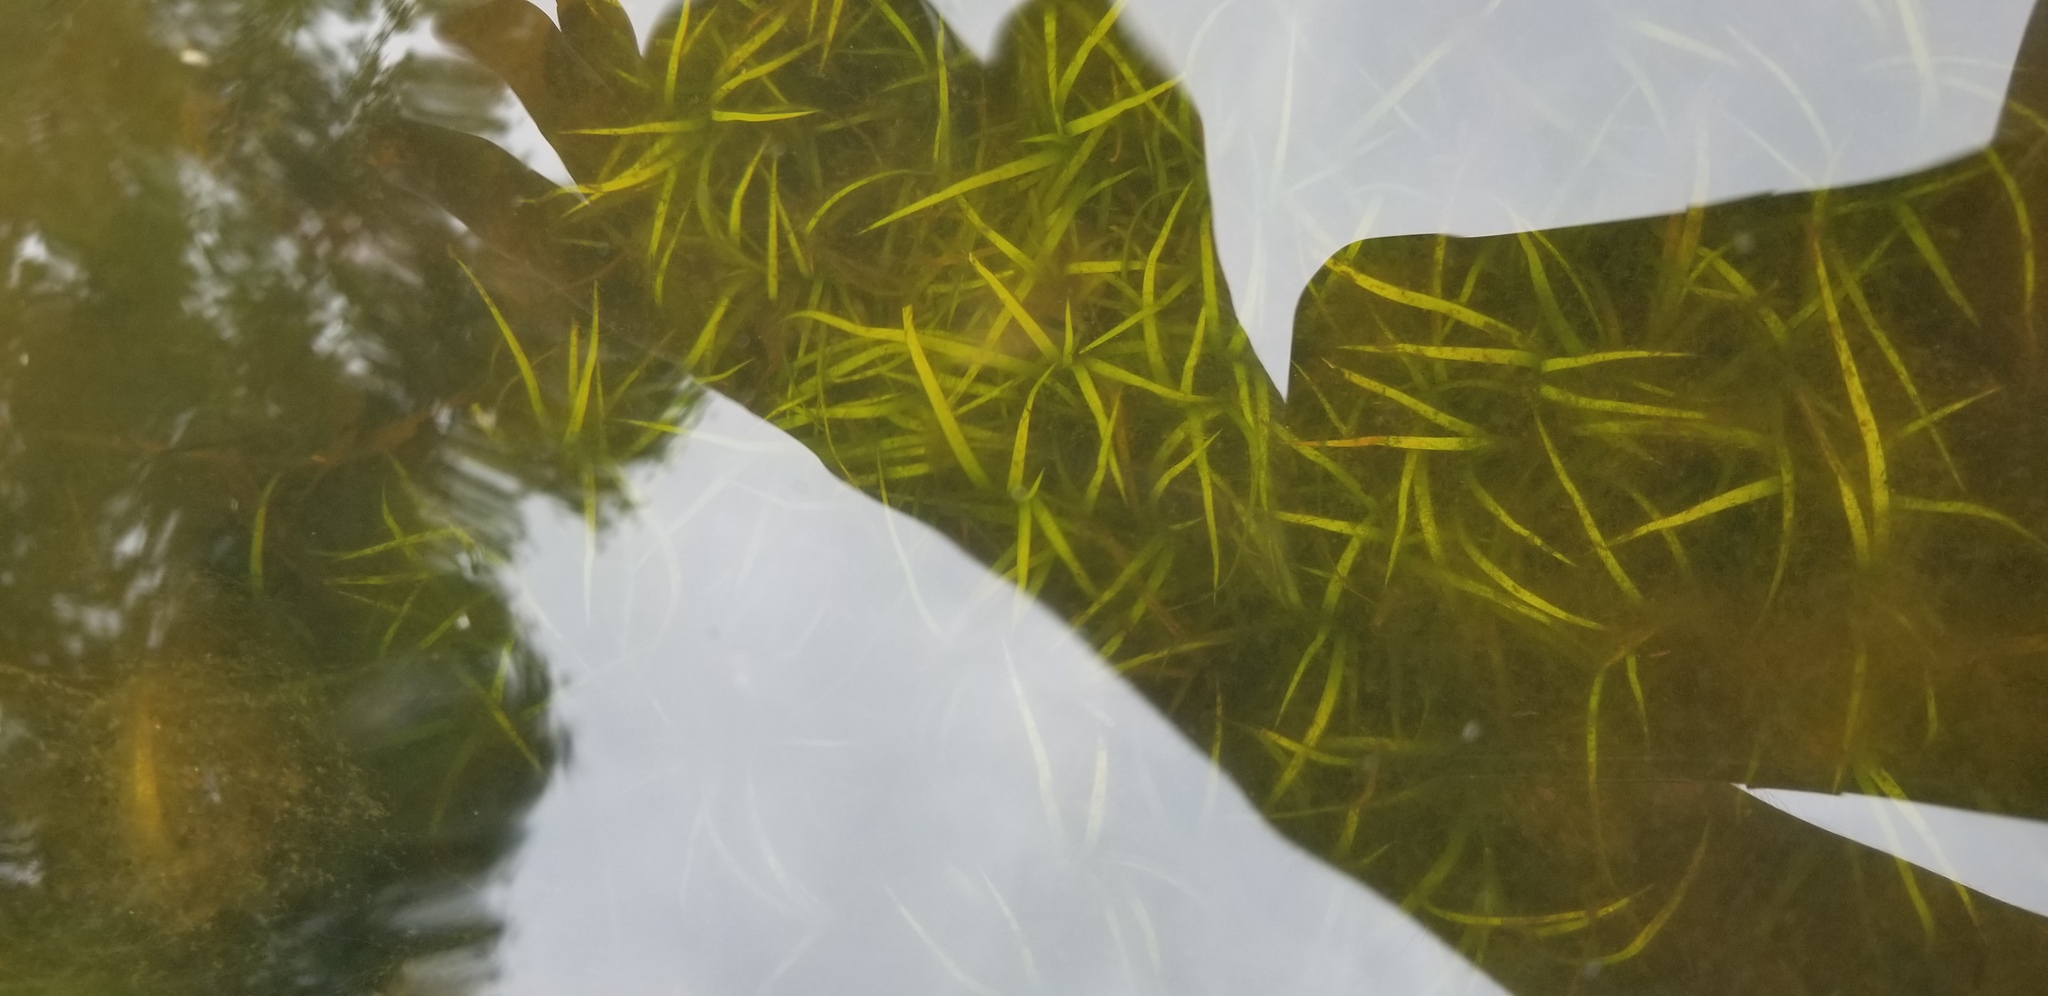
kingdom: Plantae
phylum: Tracheophyta
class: Liliopsida
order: Poales
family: Juncaceae
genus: Juncus
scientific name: Juncus repens
